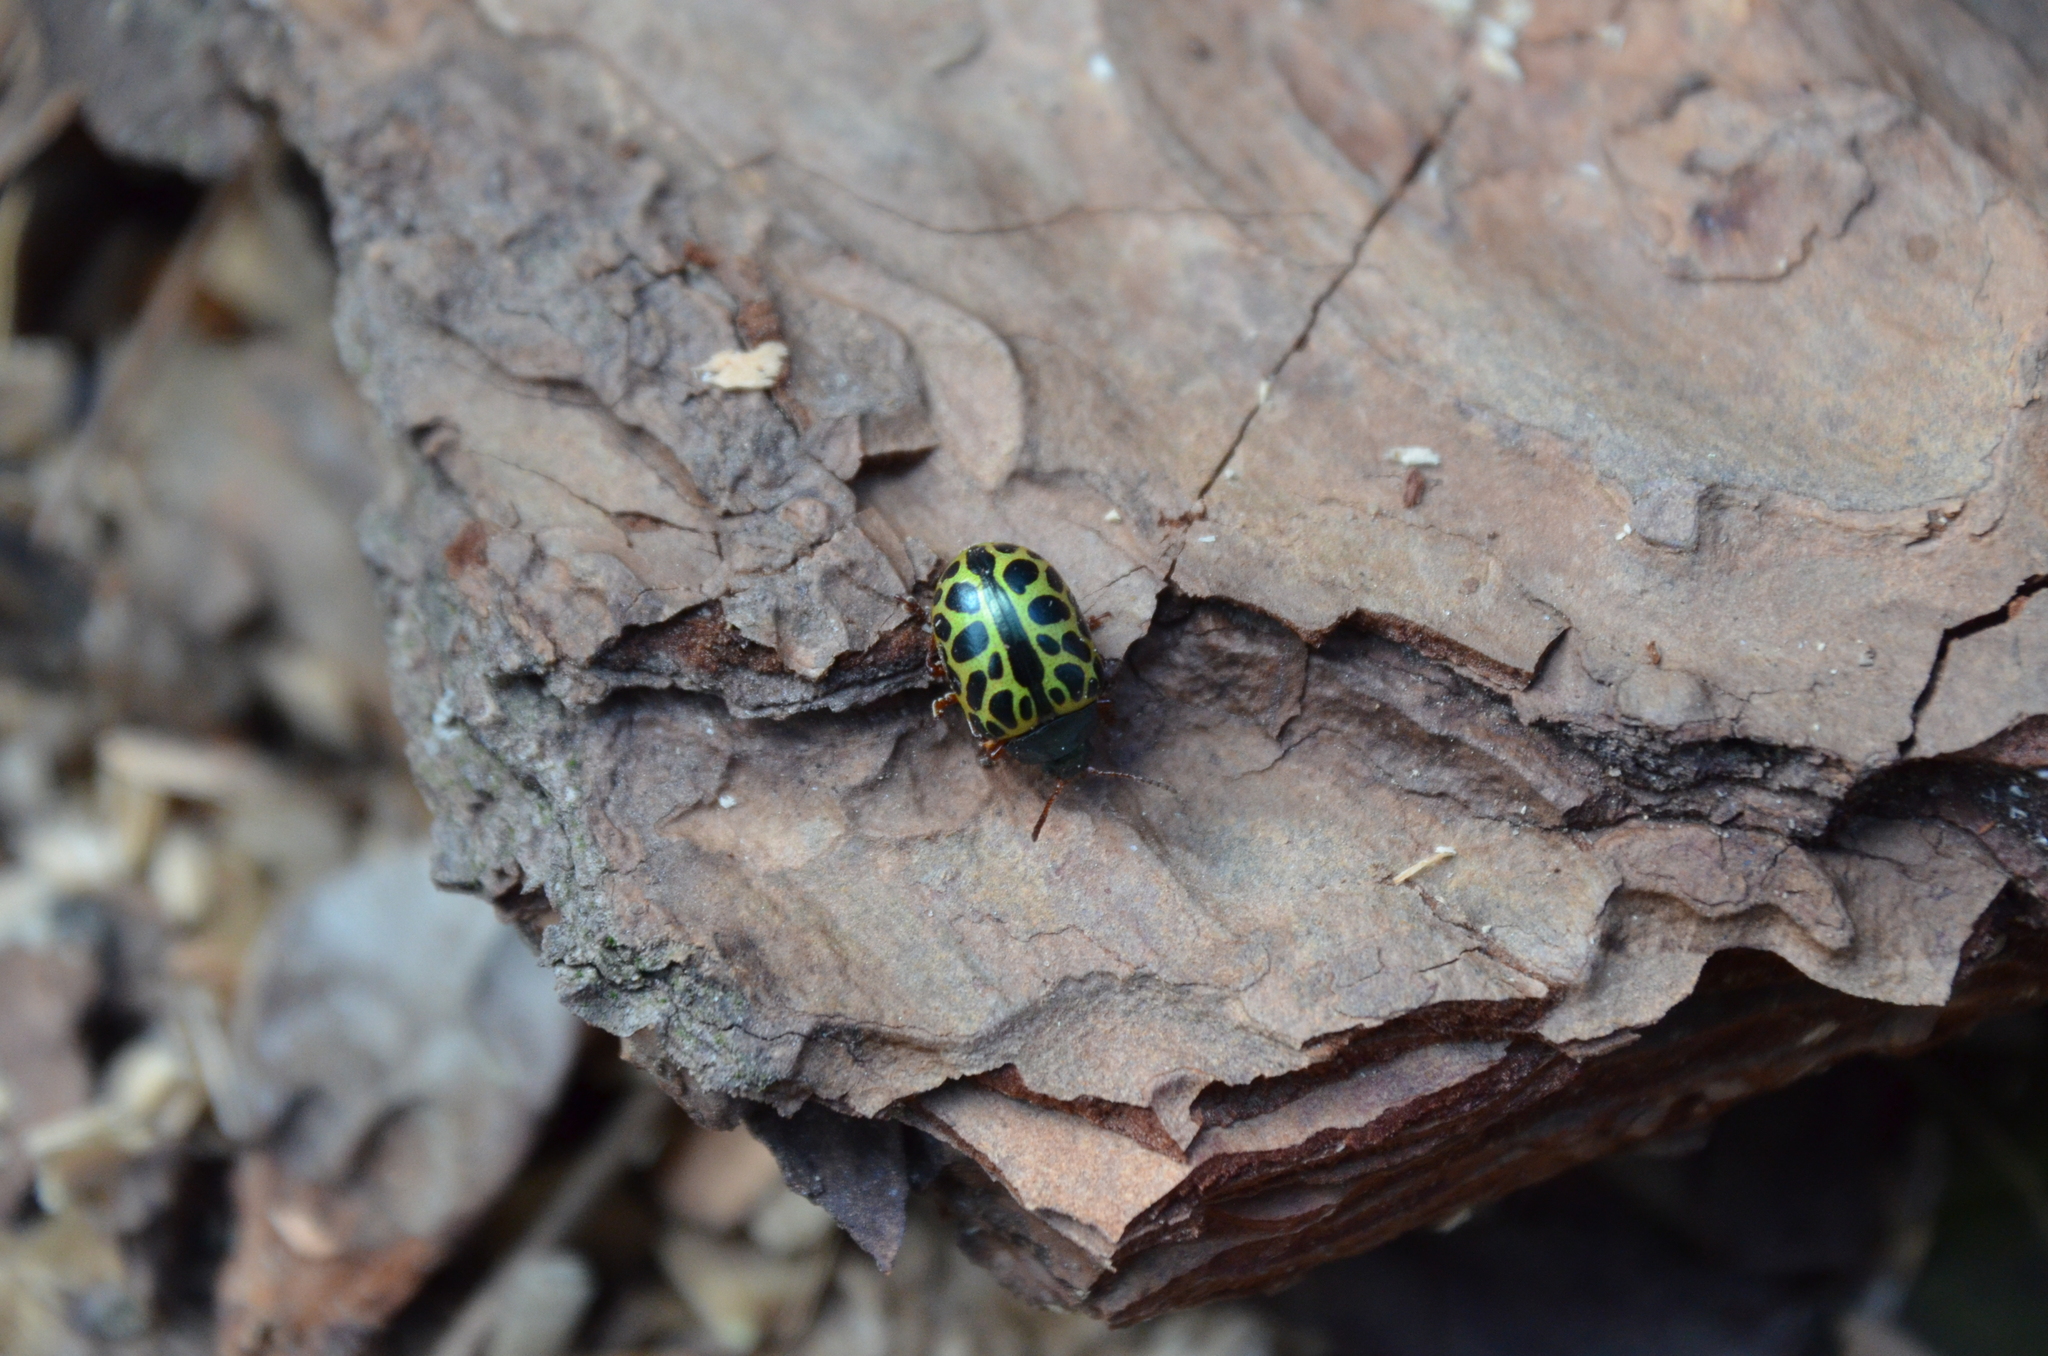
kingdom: Animalia
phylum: Arthropoda
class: Insecta
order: Coleoptera
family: Chrysomelidae
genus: Calligrapha
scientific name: Calligrapha polyspila
